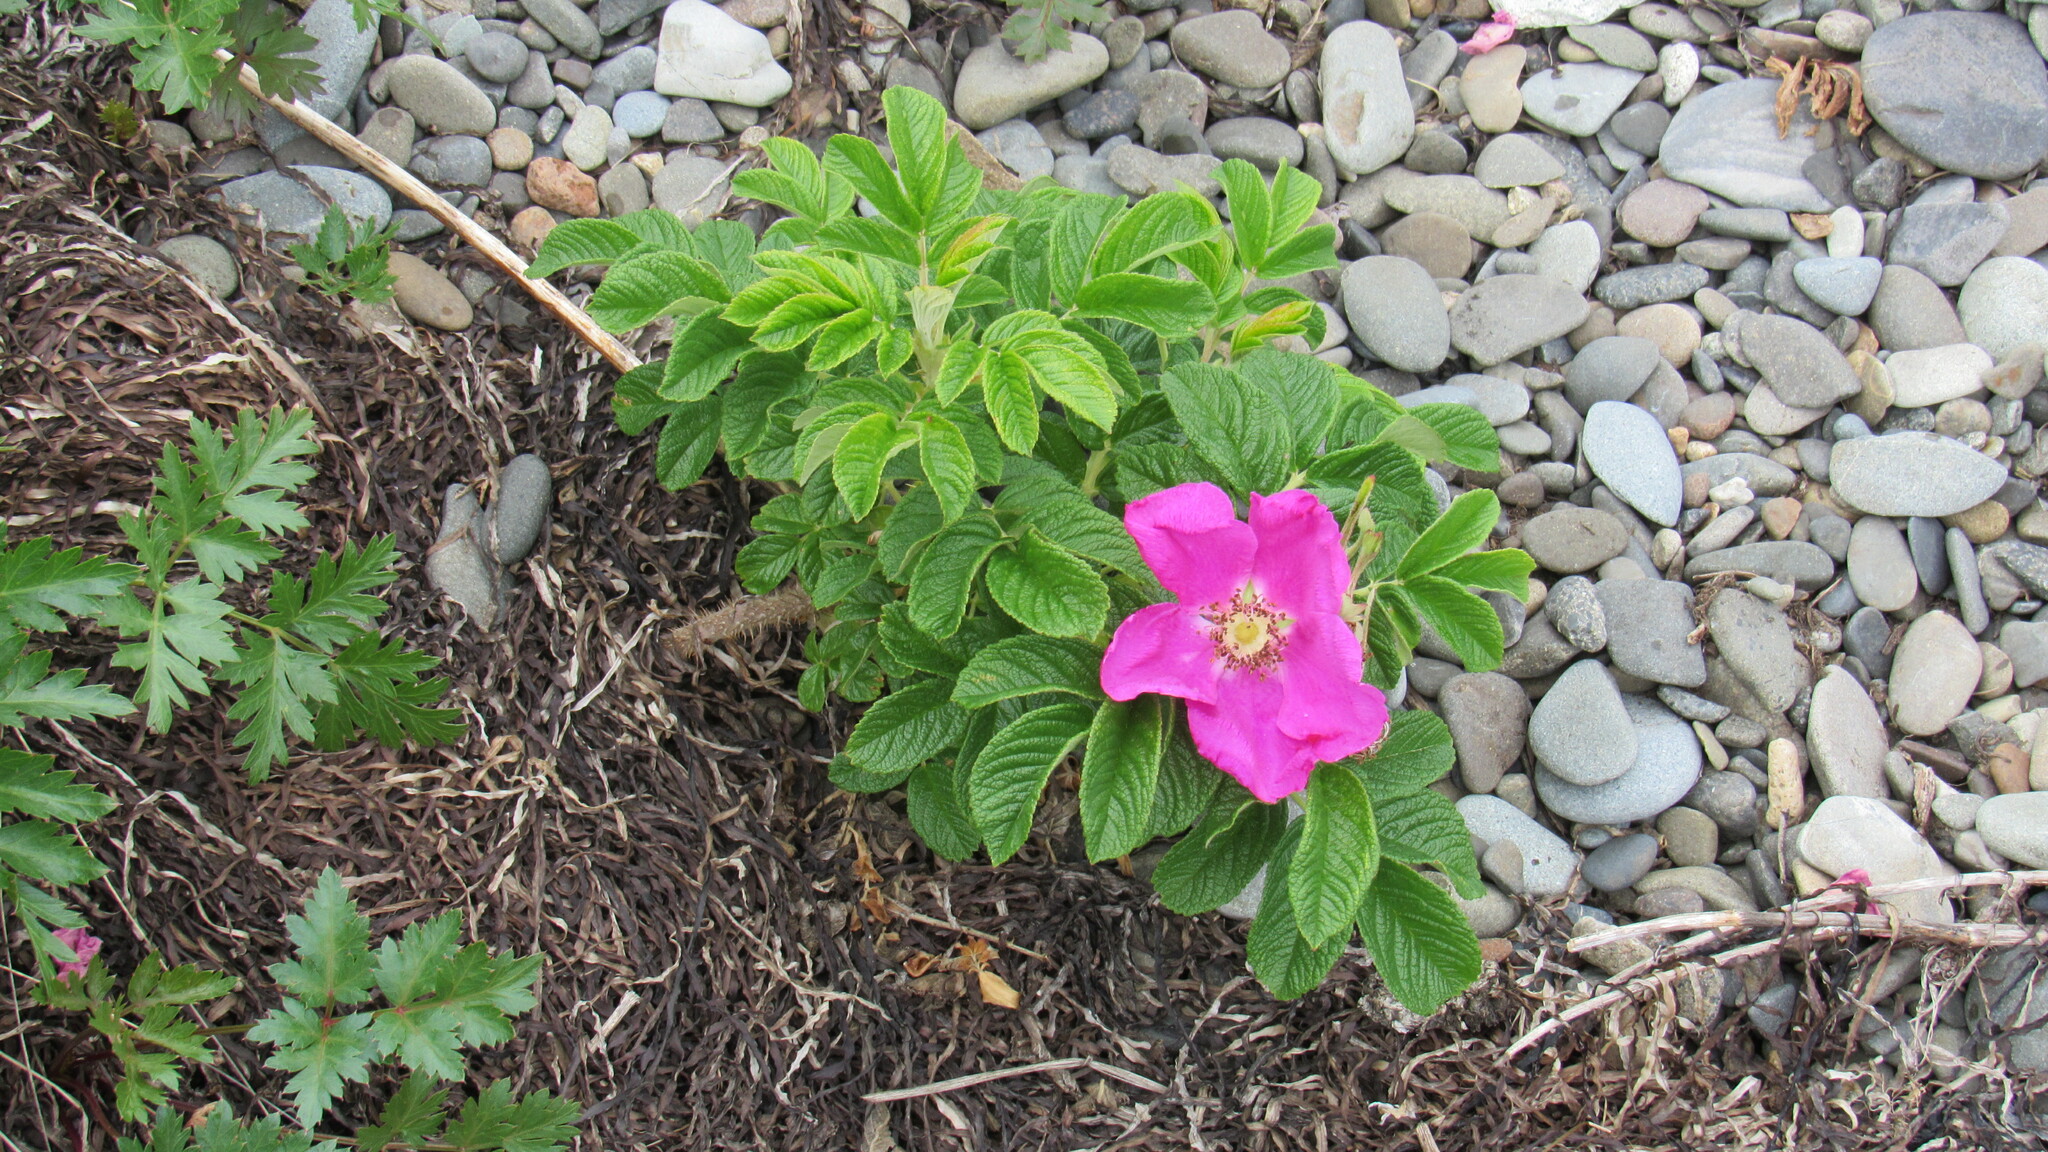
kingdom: Plantae
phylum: Tracheophyta
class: Magnoliopsida
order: Rosales
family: Rosaceae
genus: Rosa
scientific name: Rosa rugosa
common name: Japanese rose
